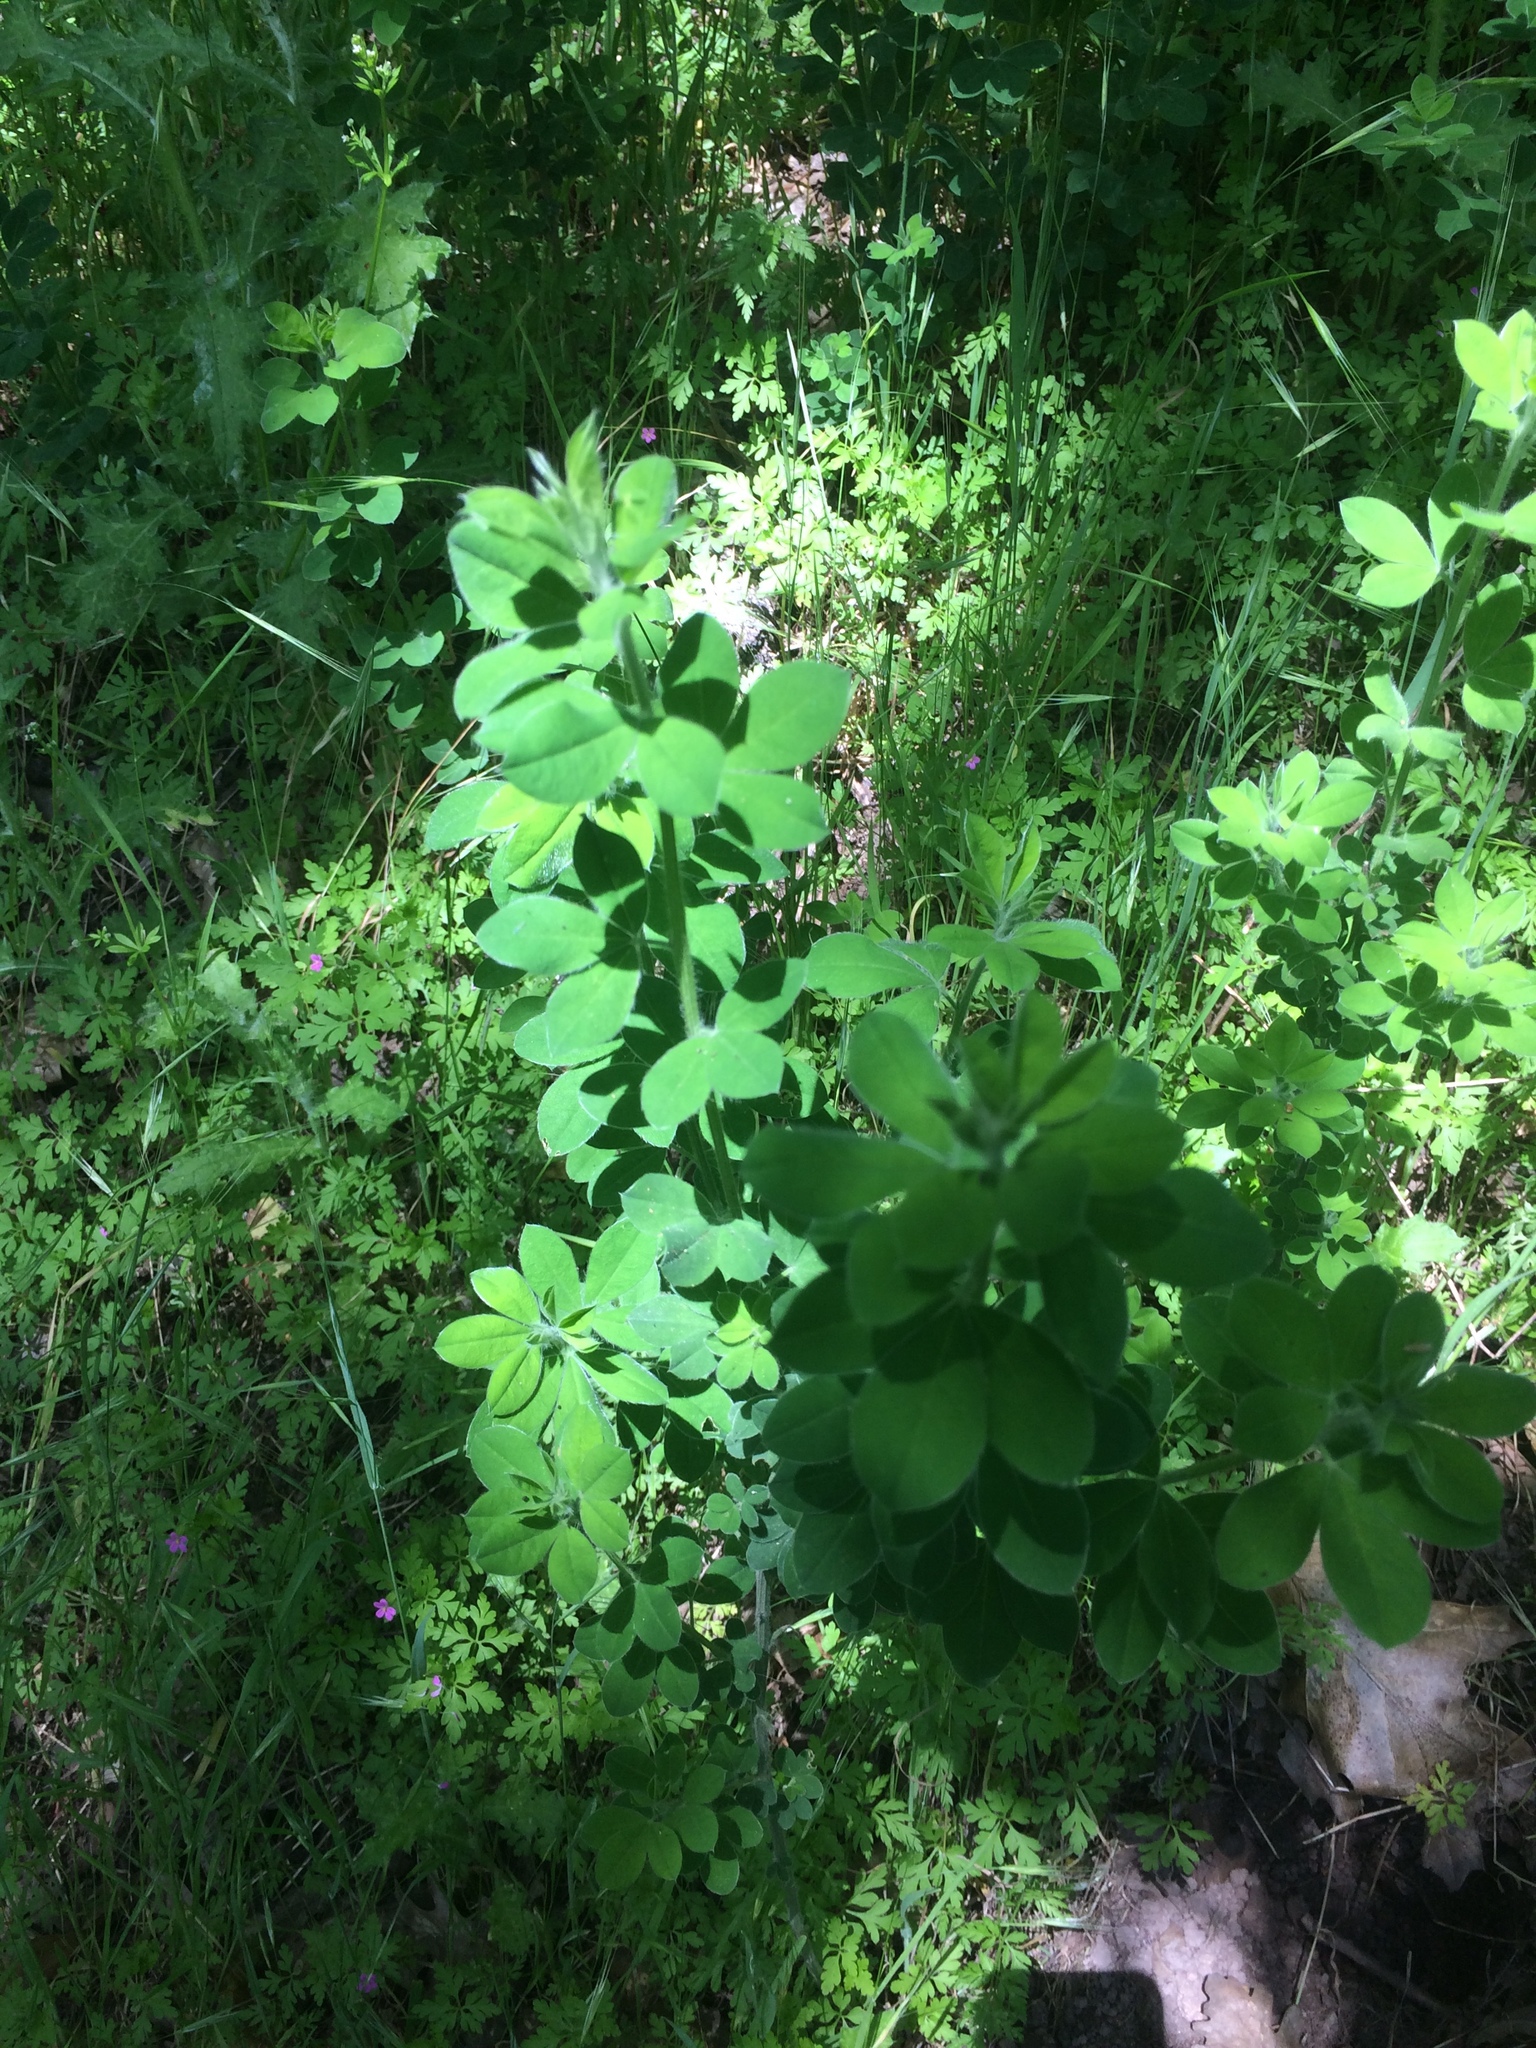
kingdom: Plantae
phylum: Tracheophyta
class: Magnoliopsida
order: Fabales
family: Fabaceae
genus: Genista
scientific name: Genista monspessulana
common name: Montpellier broom
